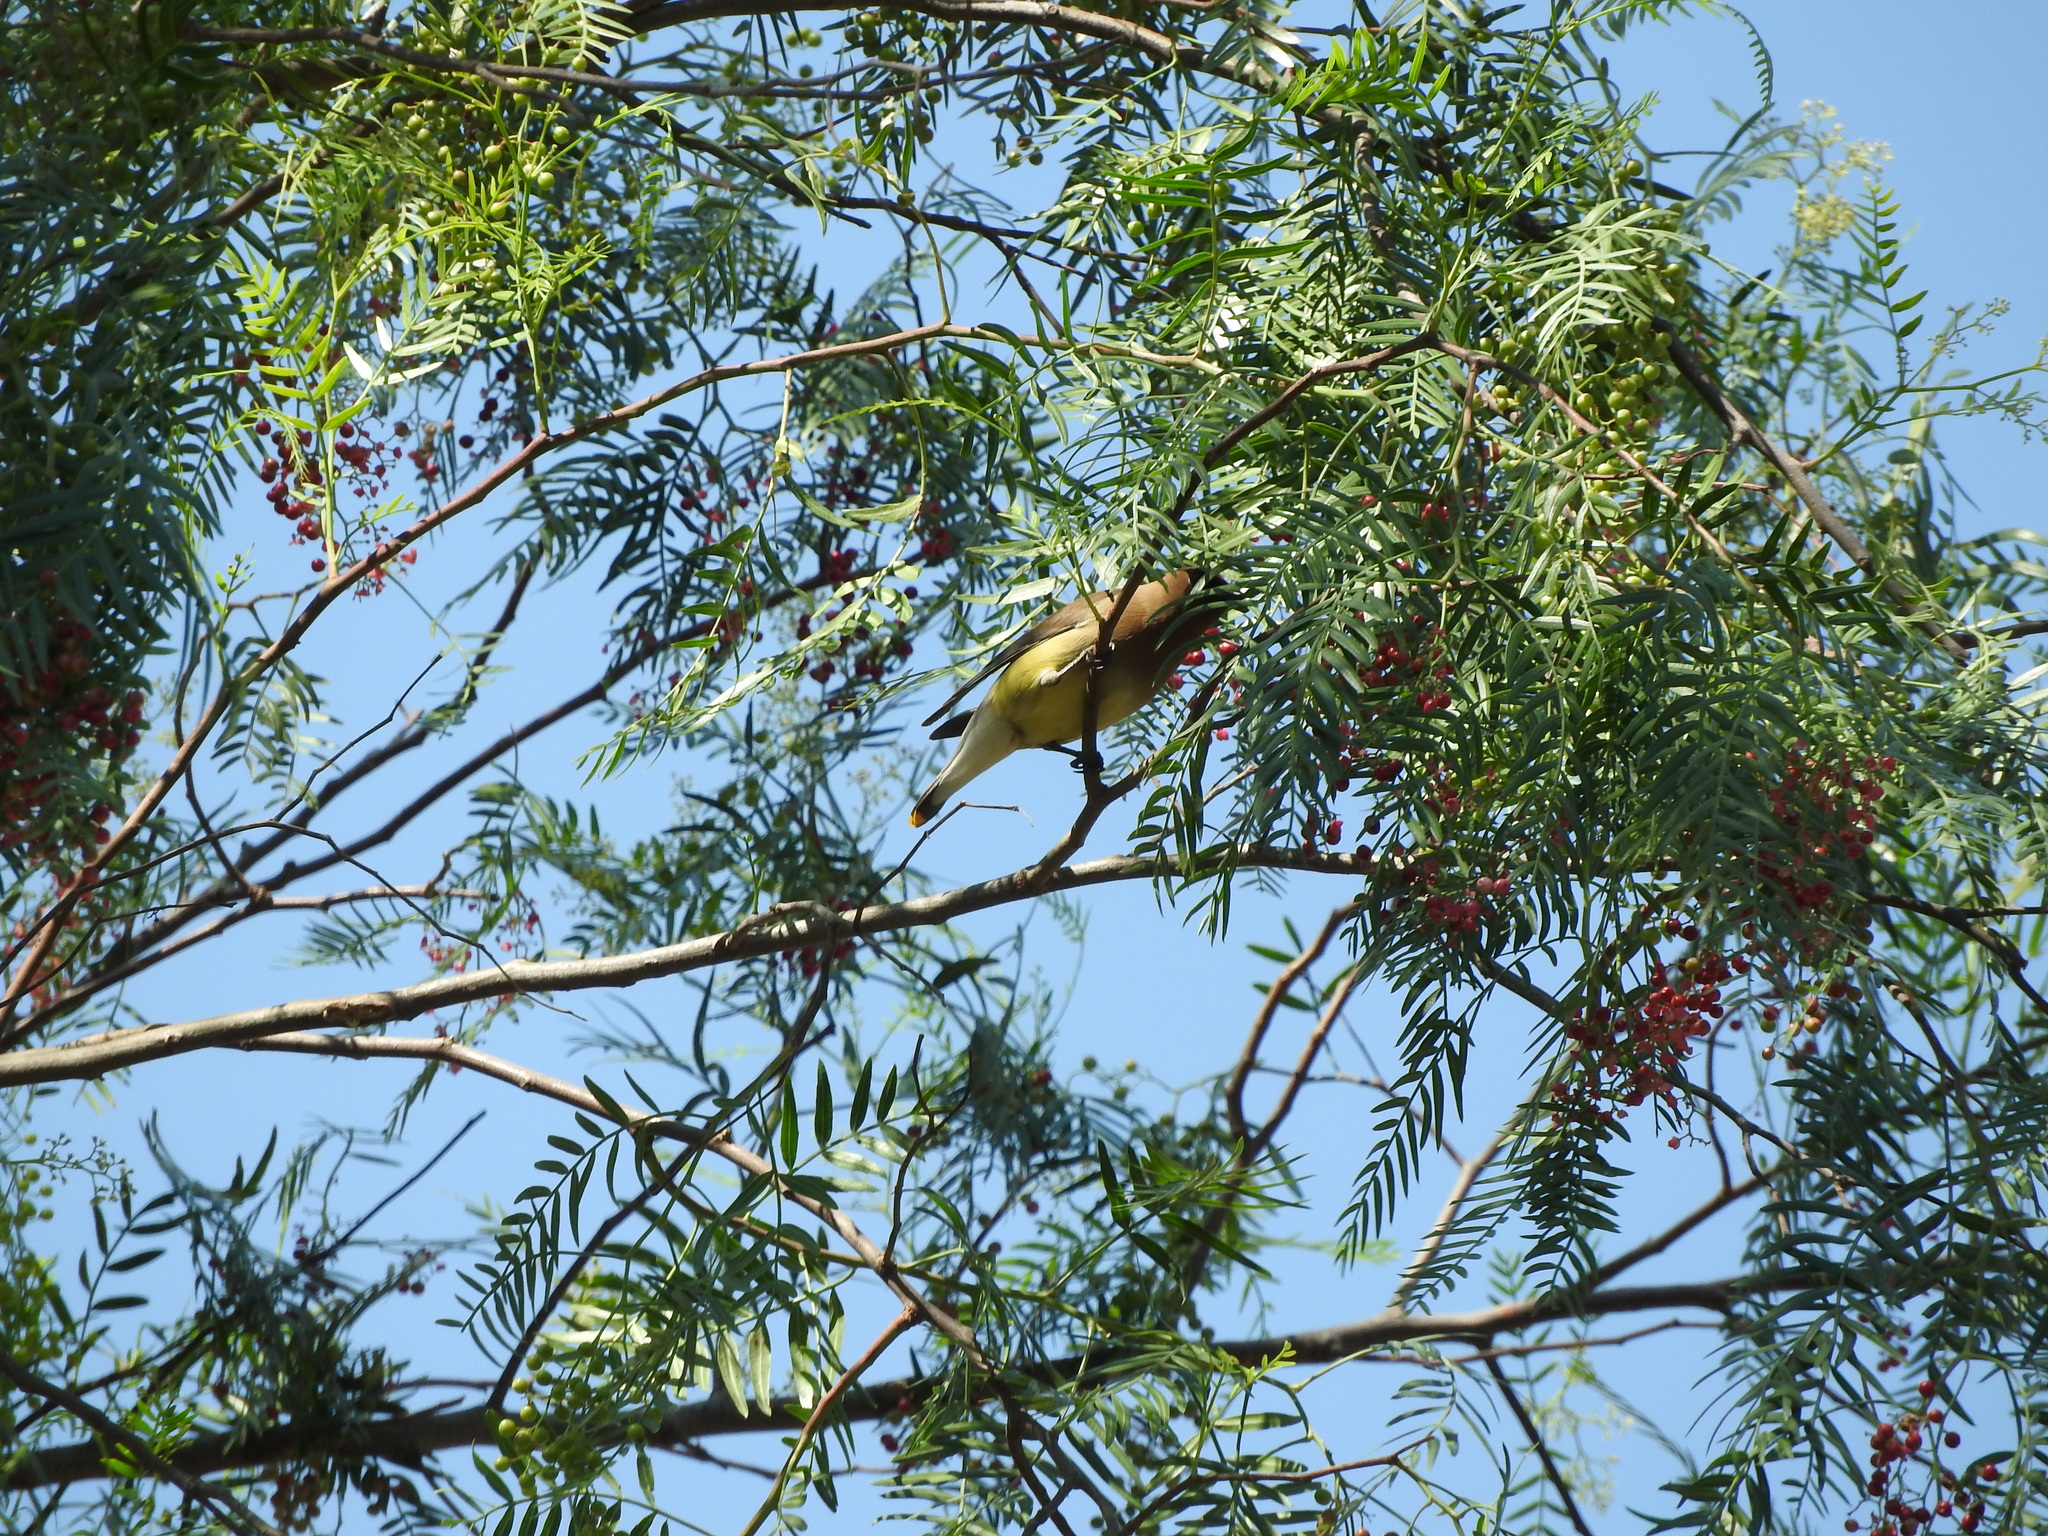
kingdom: Animalia
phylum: Chordata
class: Aves
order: Passeriformes
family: Bombycillidae
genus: Bombycilla
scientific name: Bombycilla cedrorum
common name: Cedar waxwing
